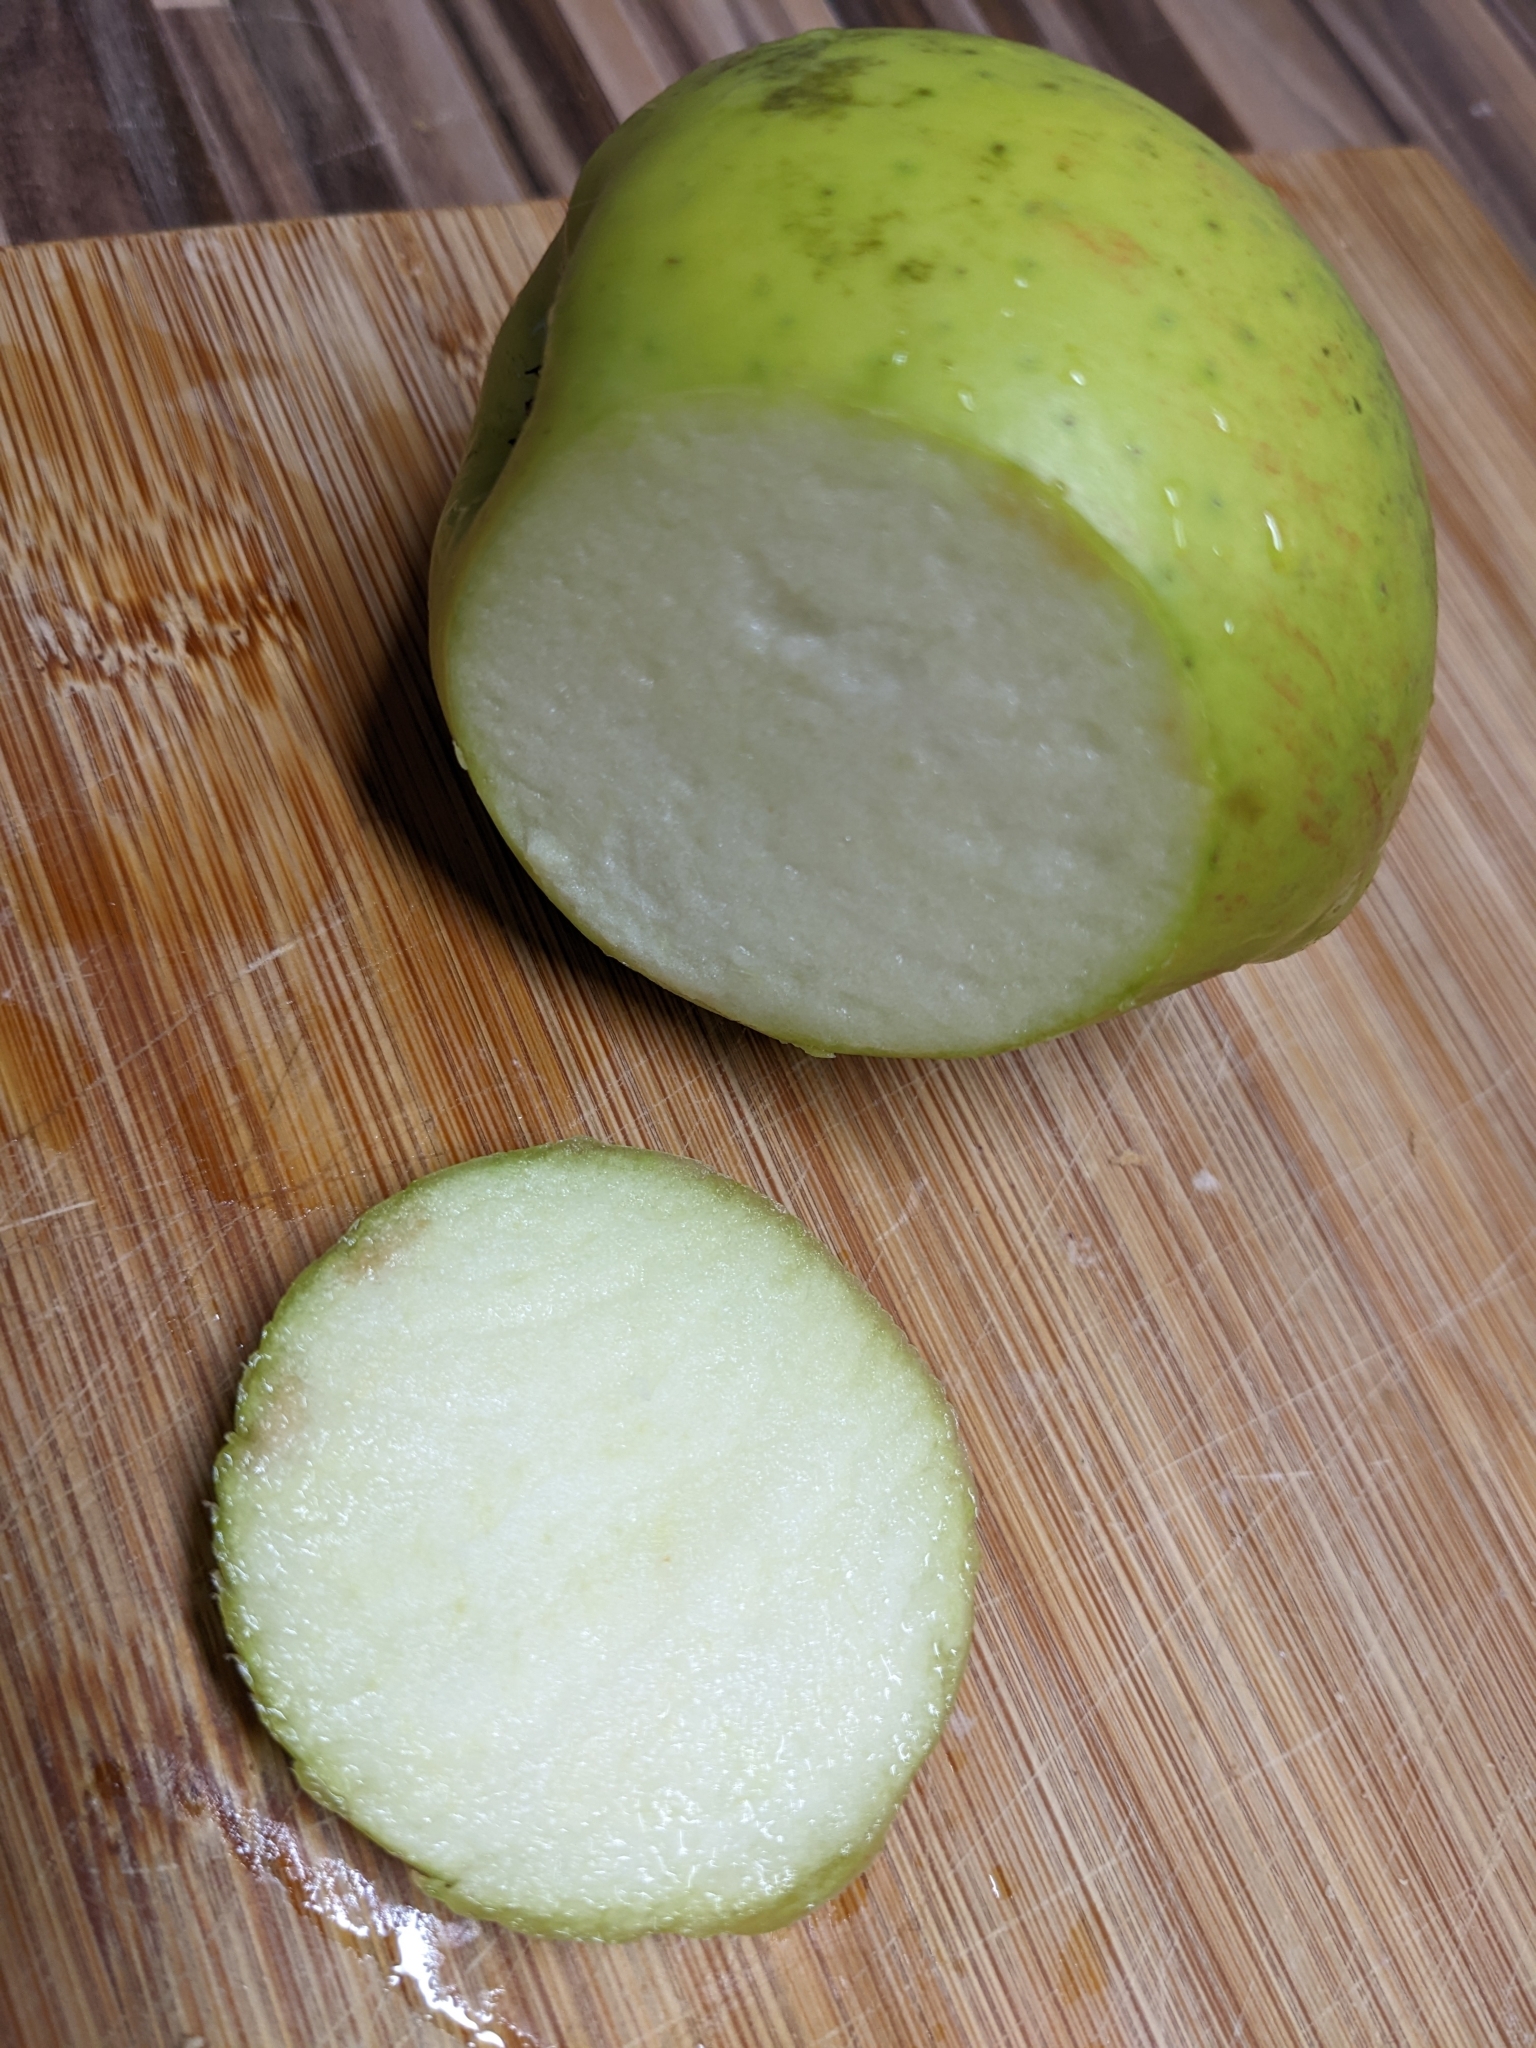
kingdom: Plantae
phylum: Tracheophyta
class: Magnoliopsida
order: Rosales
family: Rosaceae
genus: Malus
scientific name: Malus domestica
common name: Apple
